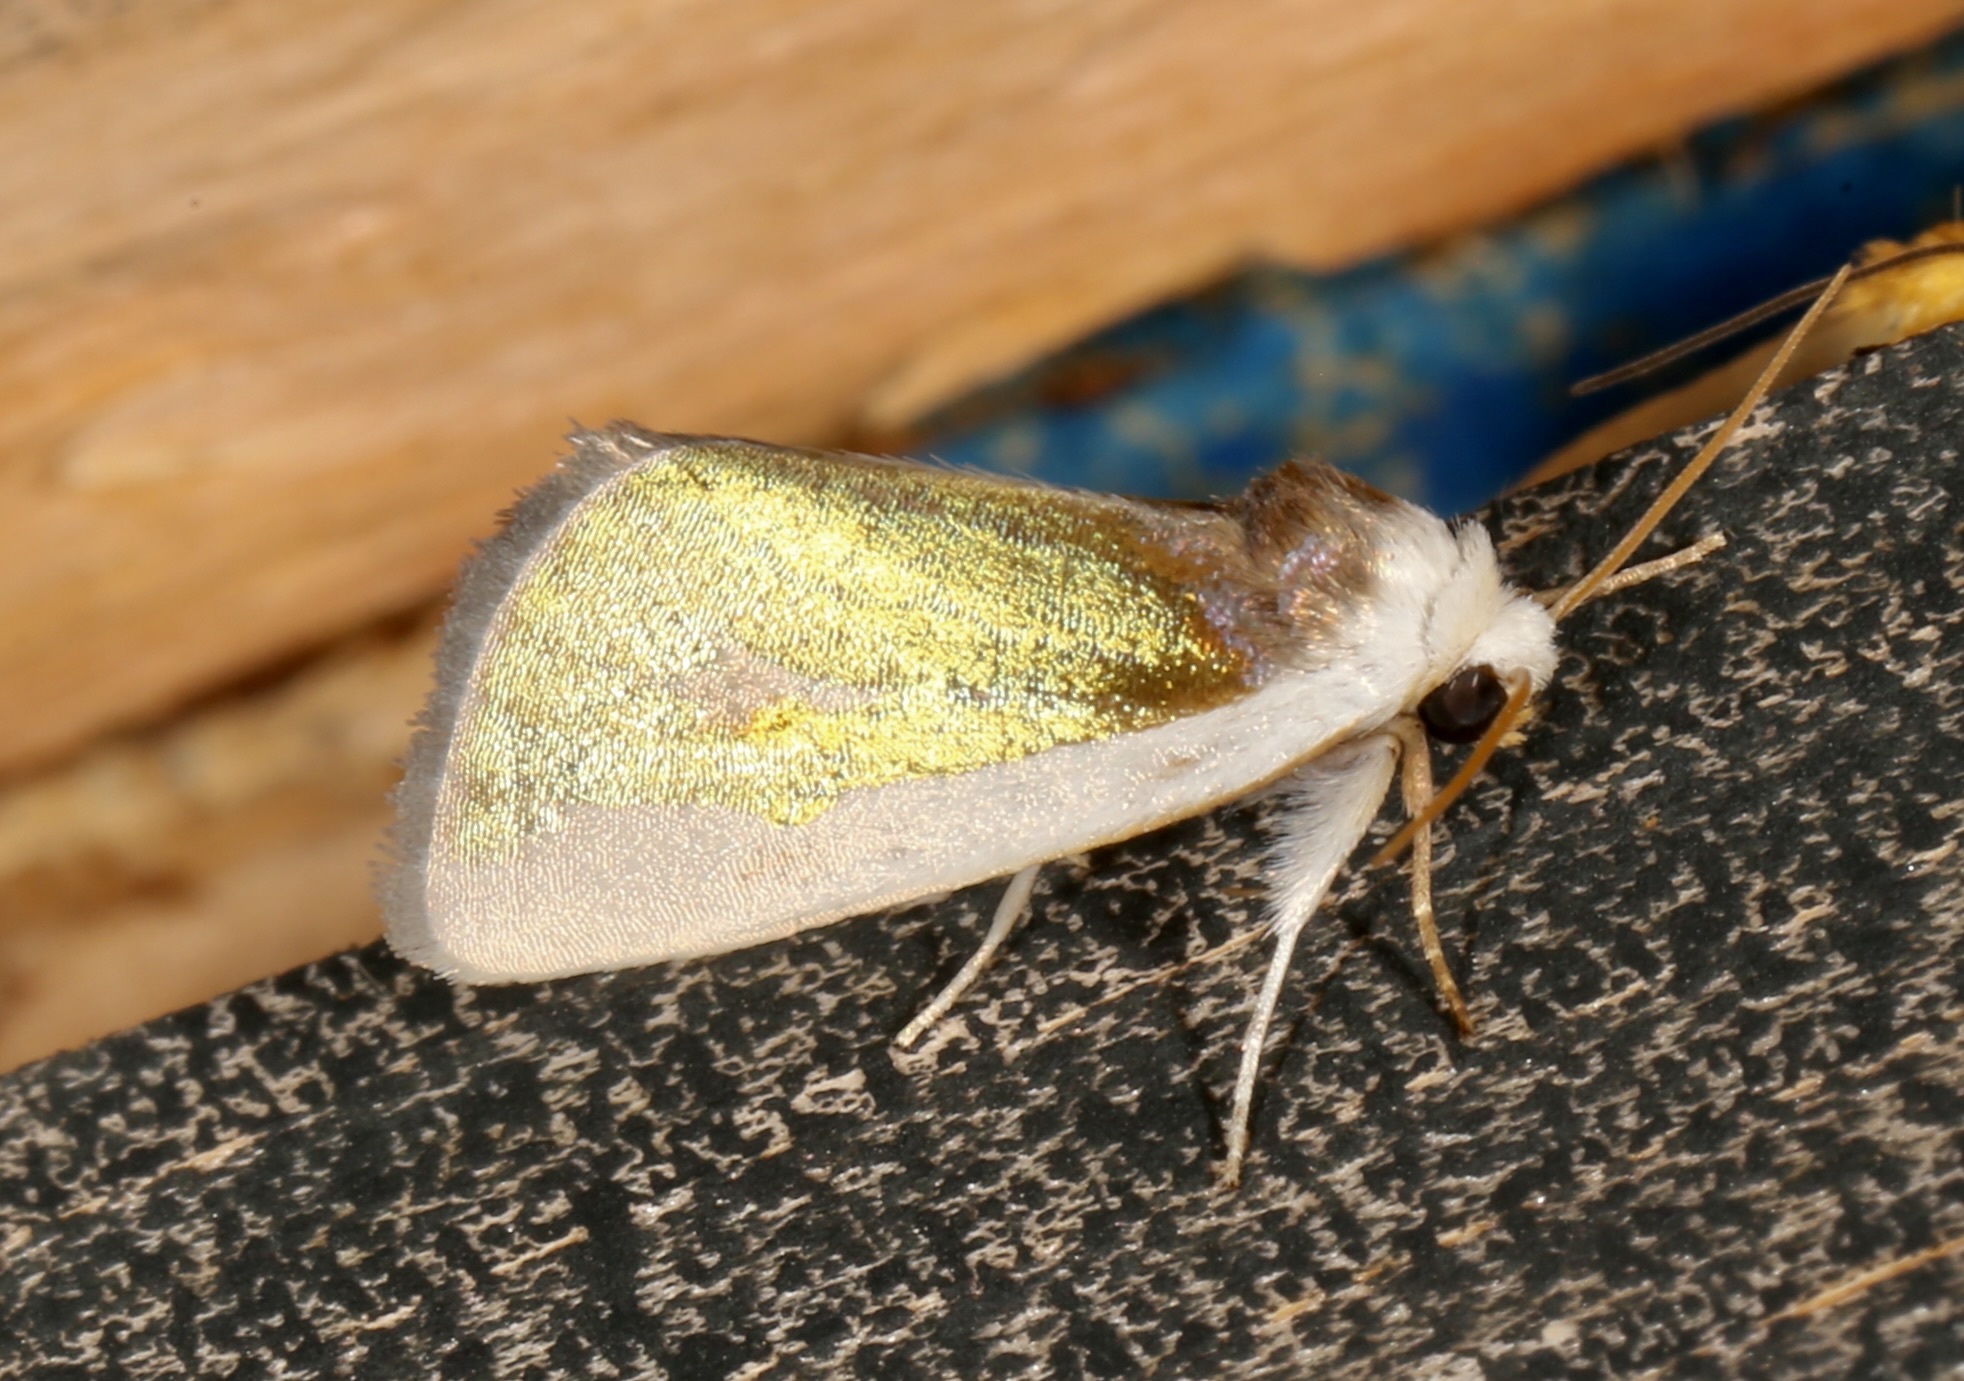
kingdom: Animalia
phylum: Arthropoda
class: Insecta
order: Lepidoptera
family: Noctuidae
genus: Neumoegenia
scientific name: Neumoegenia poetica
